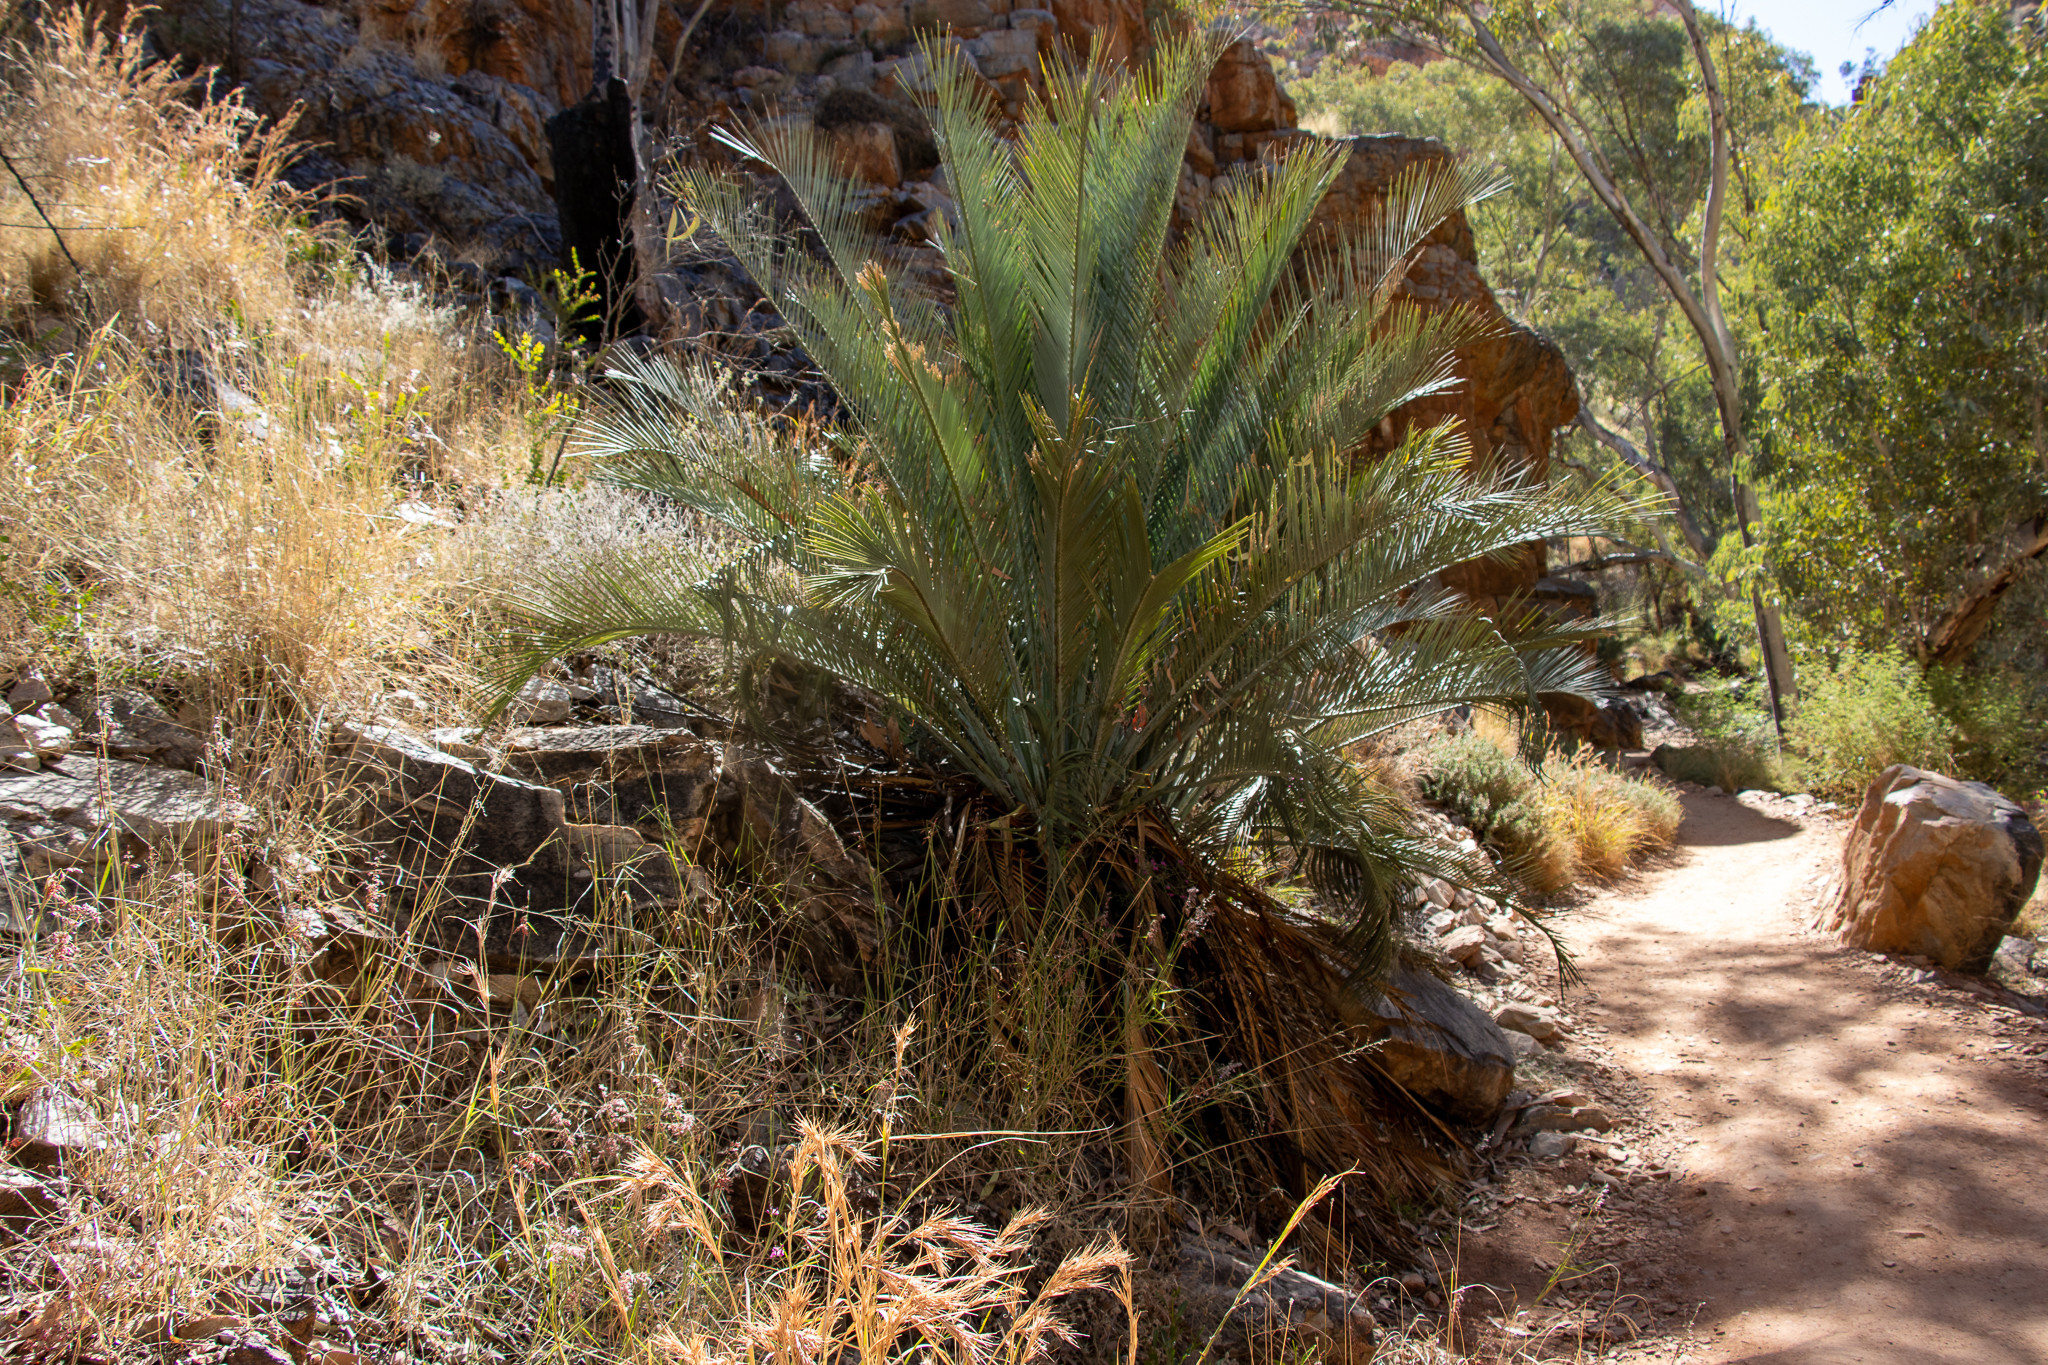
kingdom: Plantae
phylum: Tracheophyta
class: Cycadopsida
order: Cycadales
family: Zamiaceae
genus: Macrozamia
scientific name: Macrozamia macdonnellii
